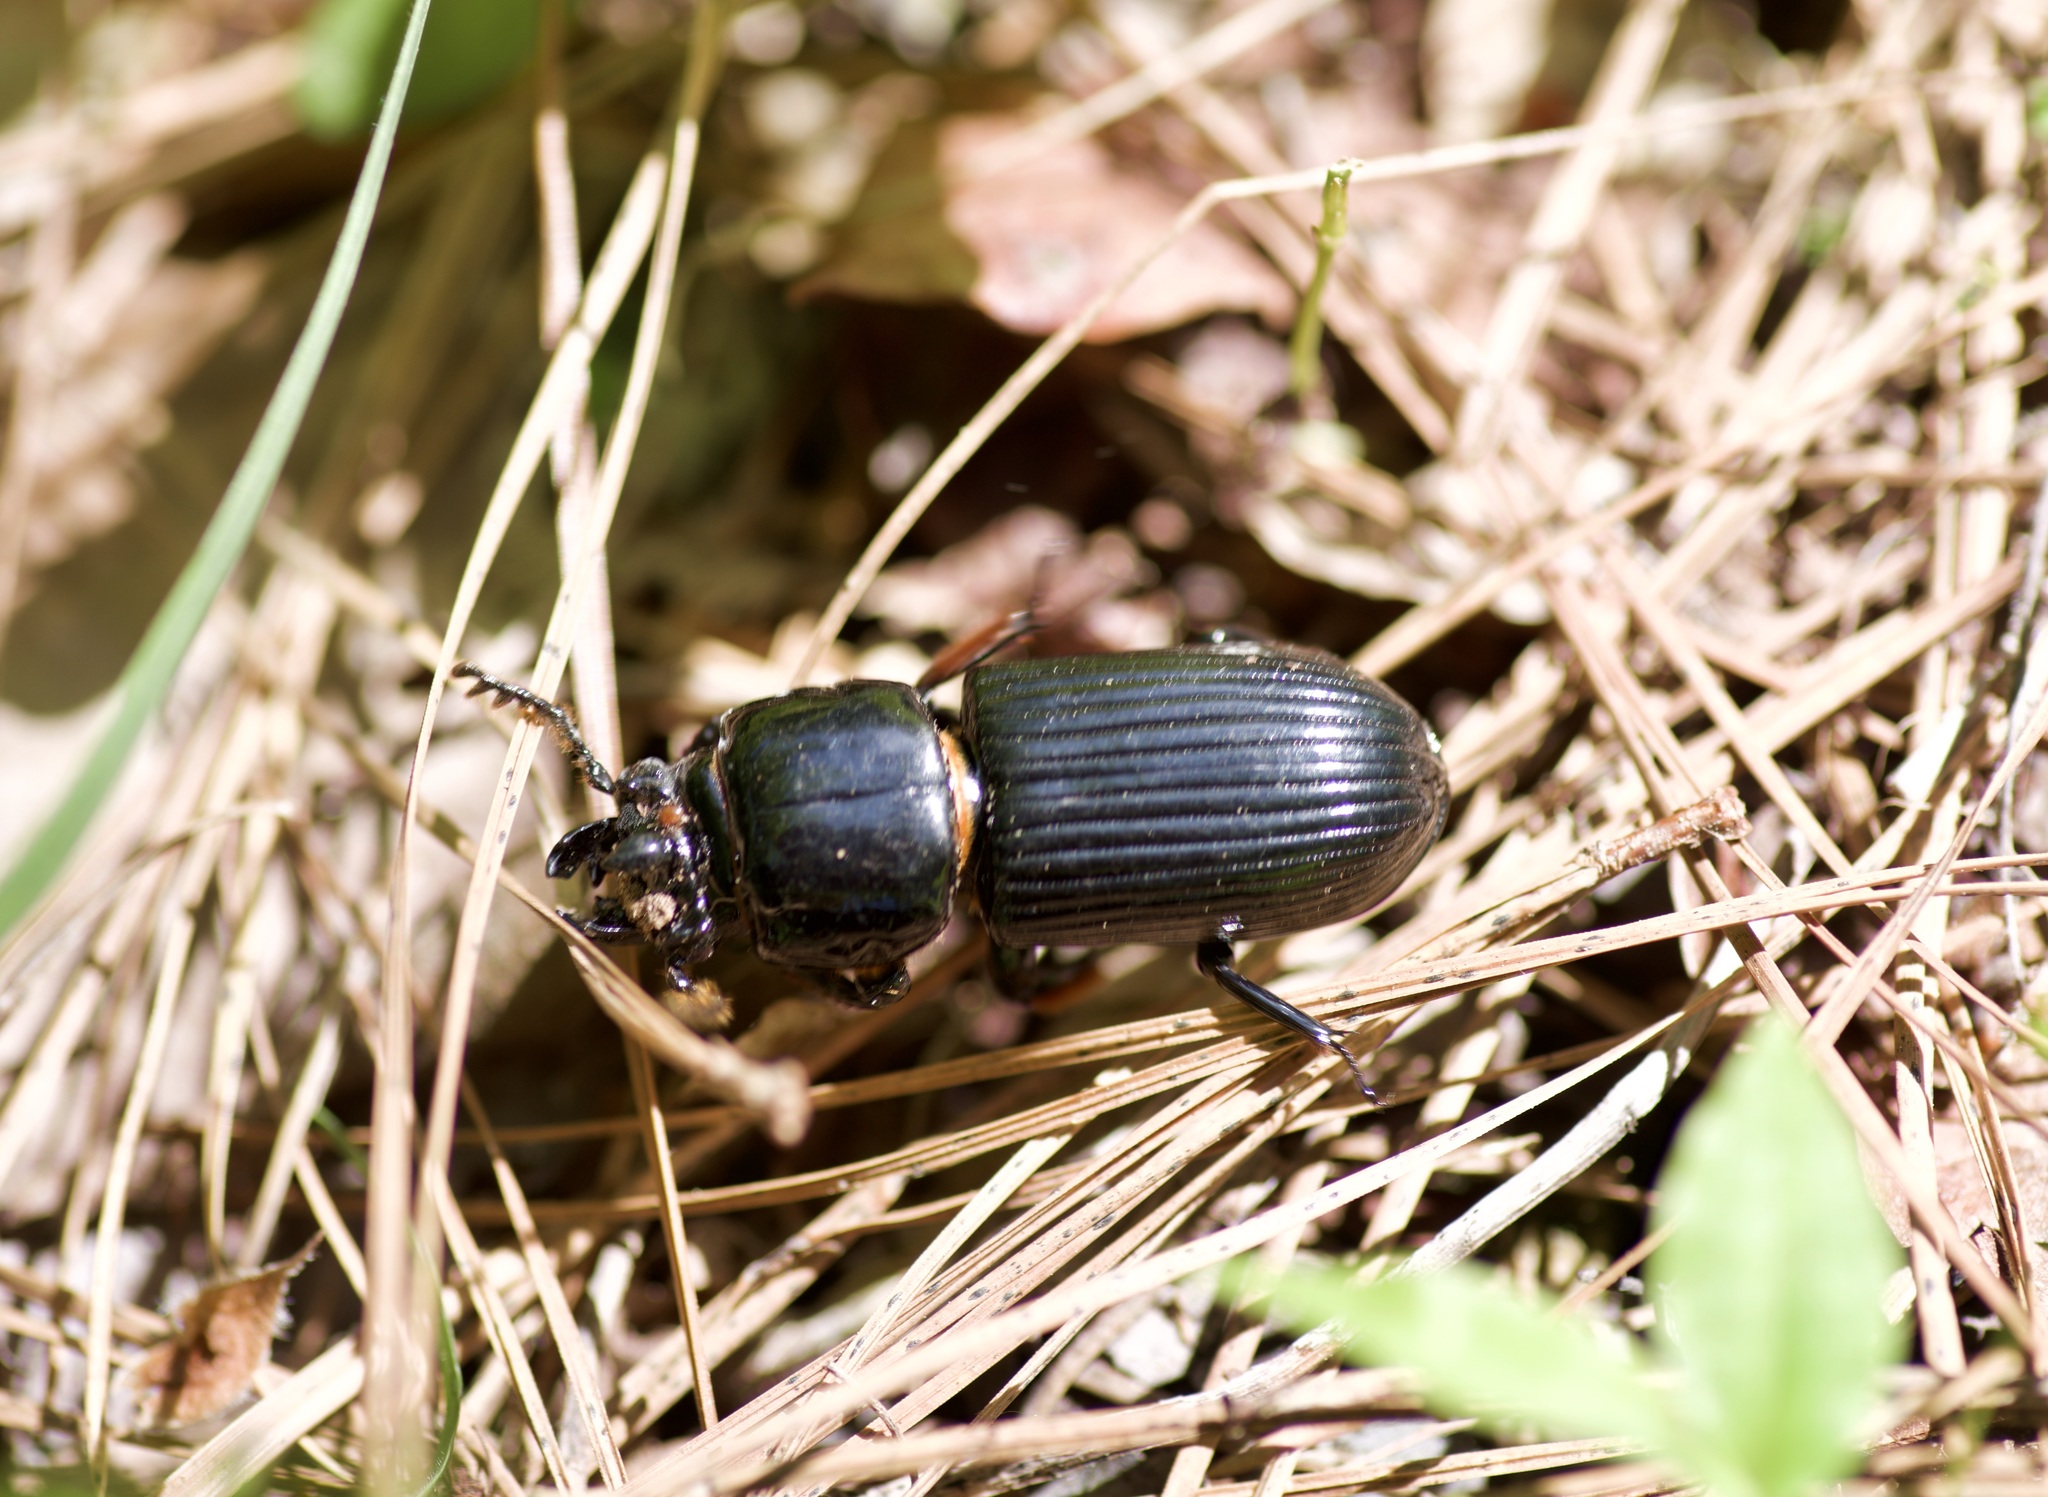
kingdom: Animalia
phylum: Arthropoda
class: Insecta
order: Coleoptera
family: Passalidae
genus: Odontotaenius
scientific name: Odontotaenius disjunctus
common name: Patent leather beetle
